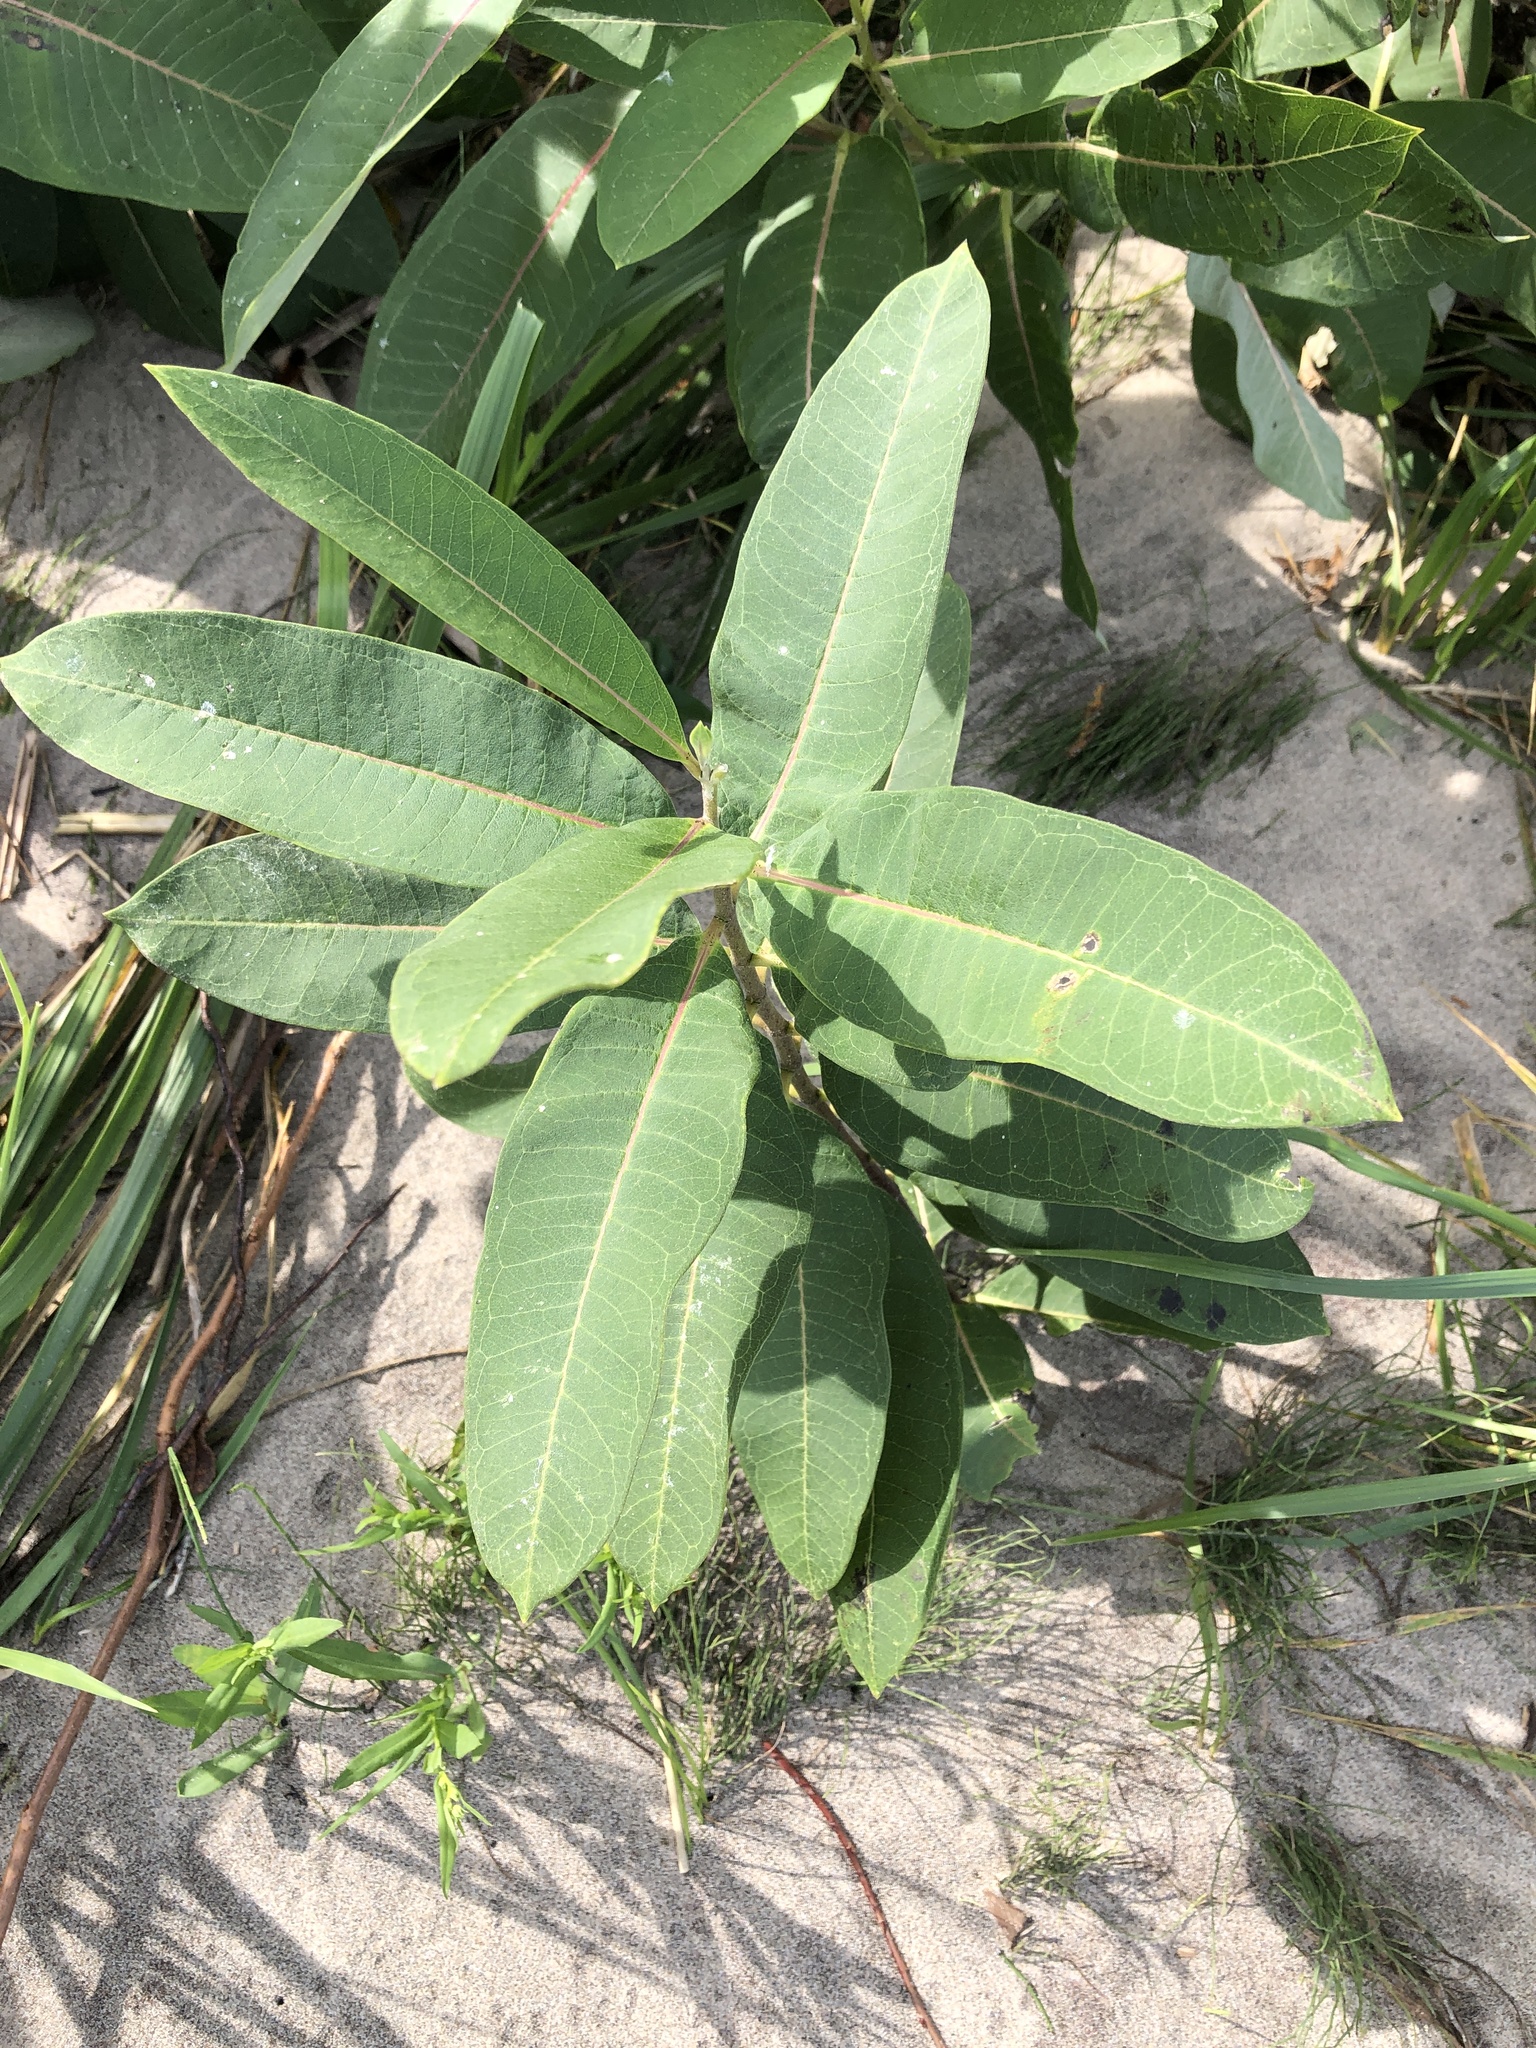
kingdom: Plantae
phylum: Tracheophyta
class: Magnoliopsida
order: Gentianales
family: Apocynaceae
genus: Asclepias
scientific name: Asclepias syriaca
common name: Common milkweed
